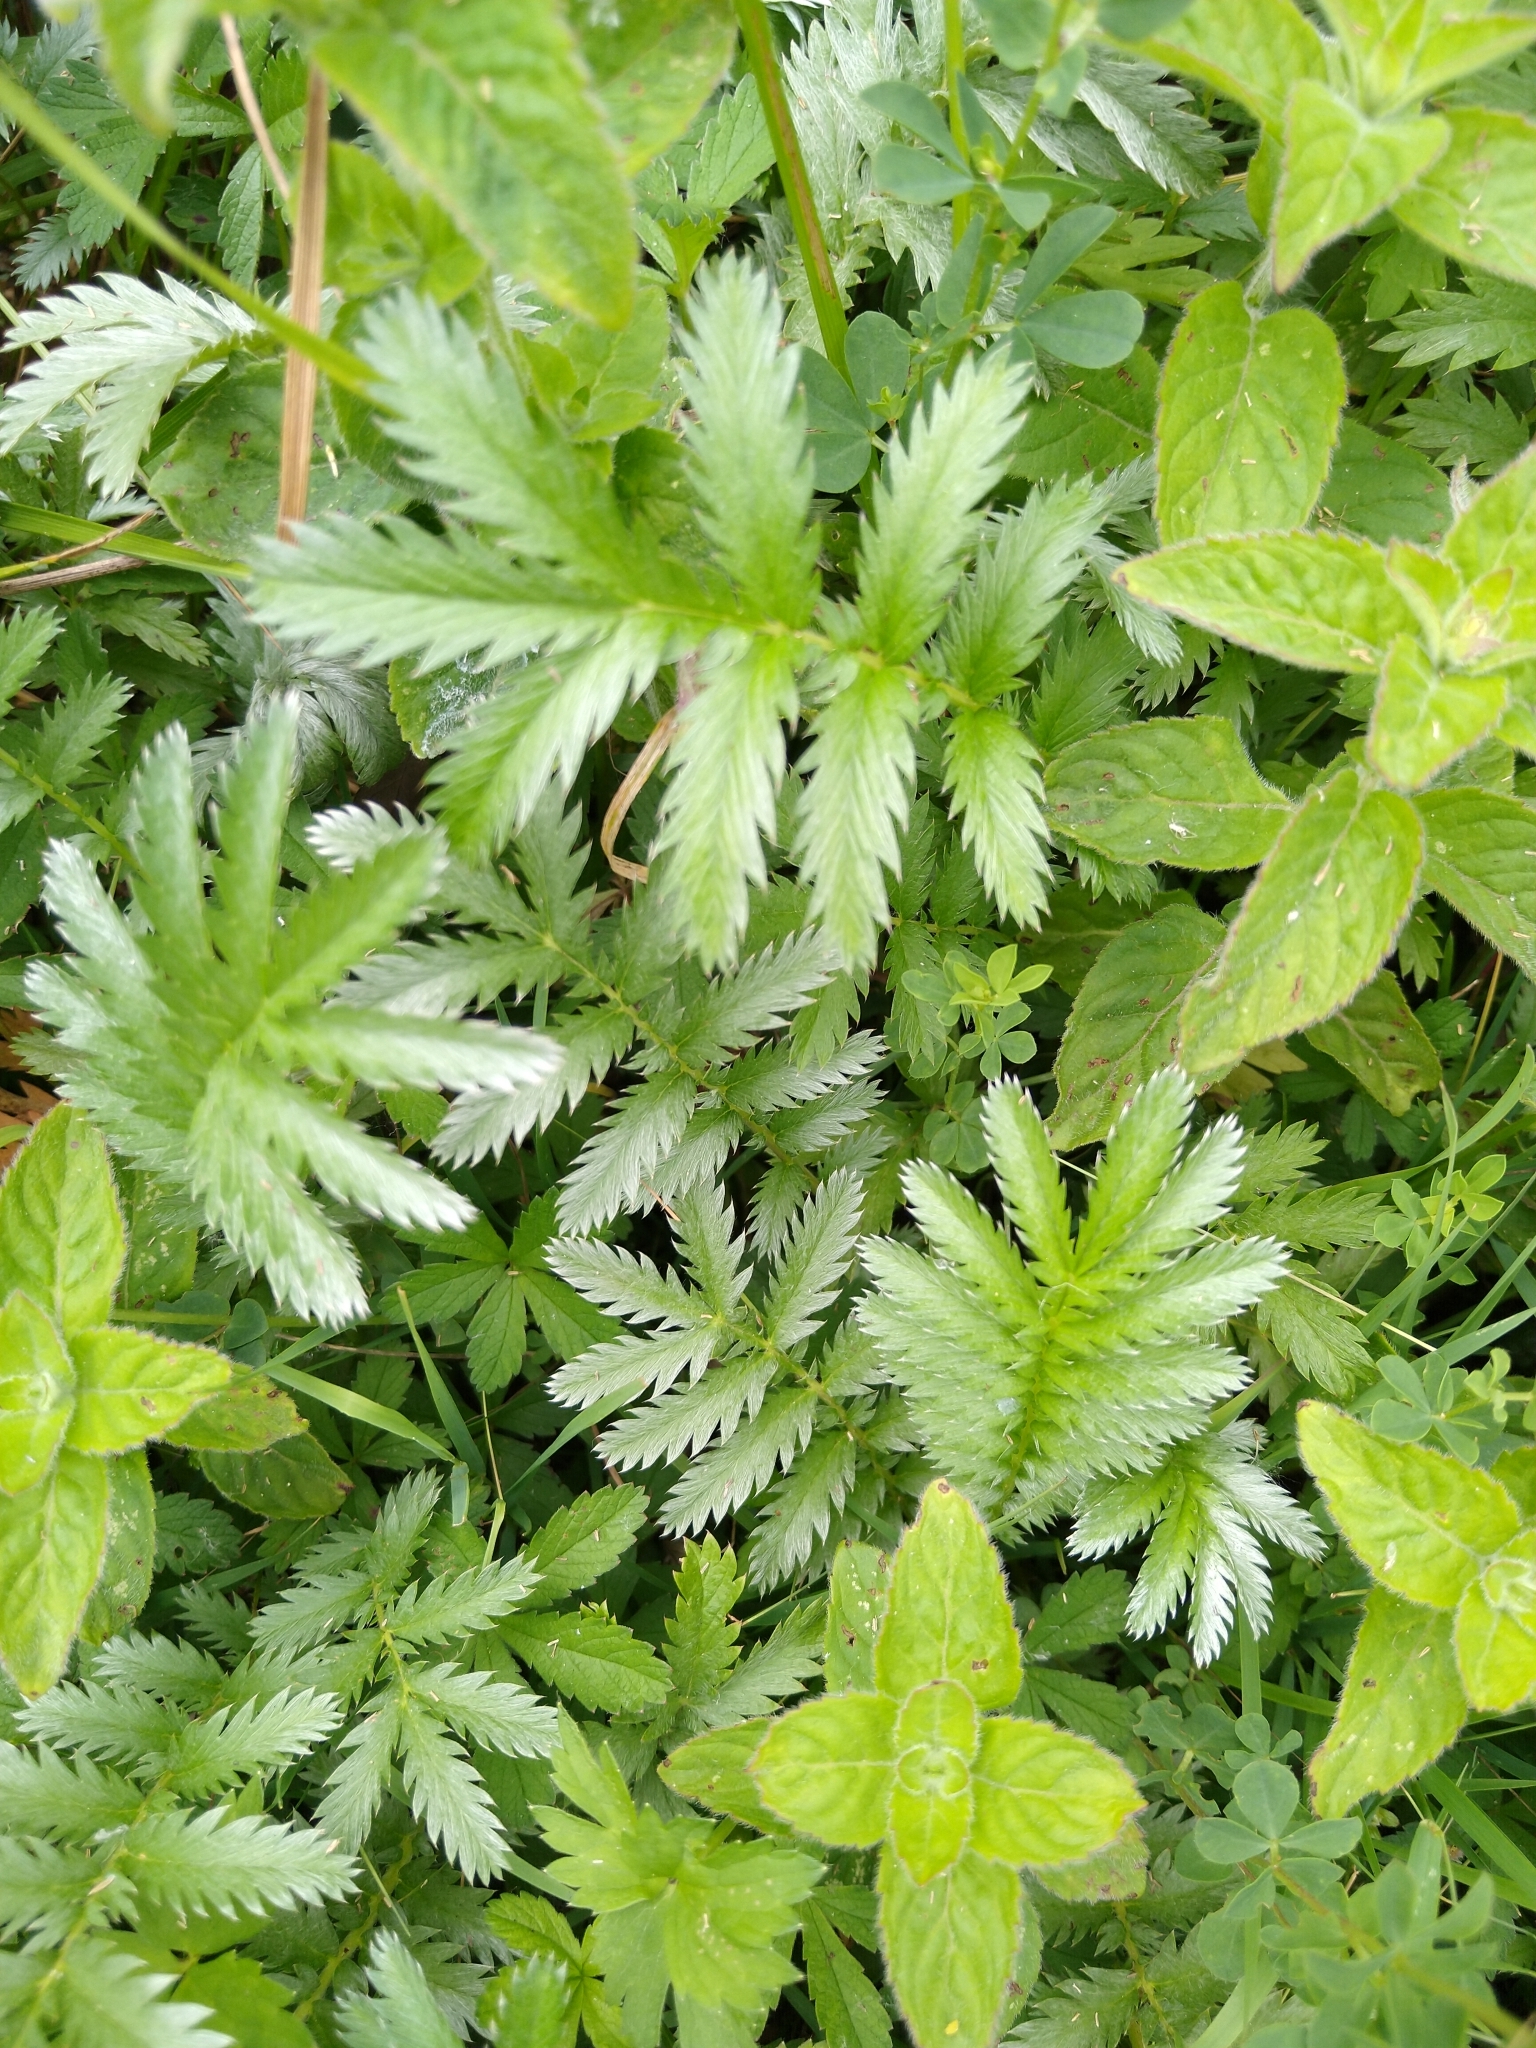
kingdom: Plantae
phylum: Tracheophyta
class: Magnoliopsida
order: Rosales
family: Rosaceae
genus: Argentina
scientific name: Argentina anserina
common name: Common silverweed
